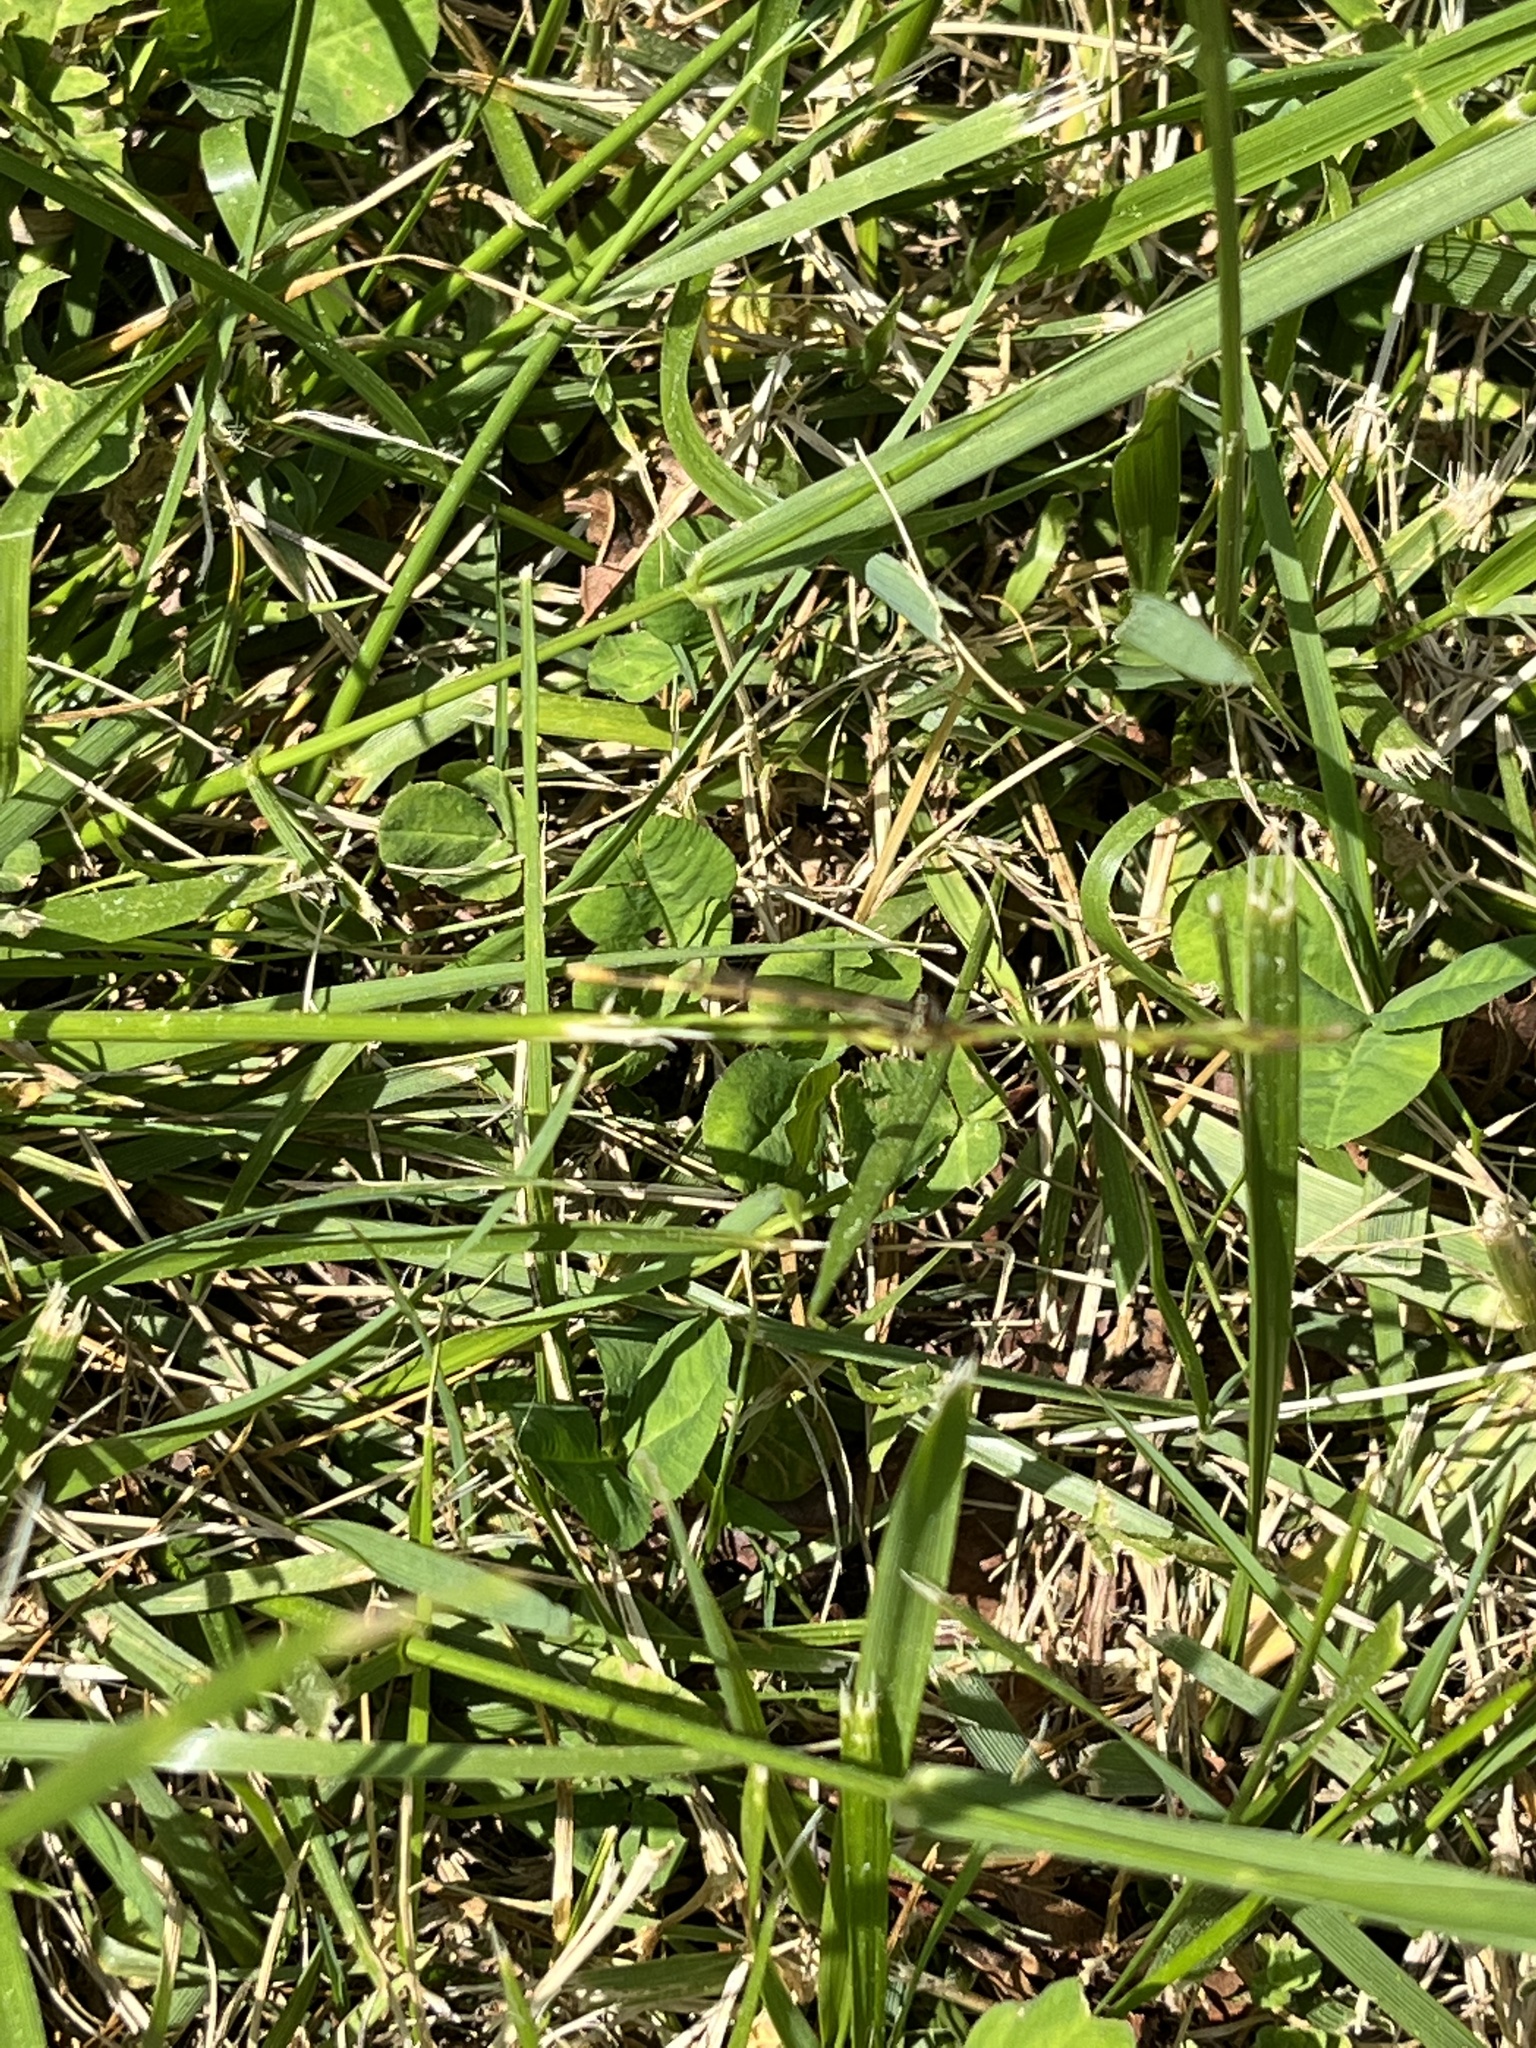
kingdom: Animalia
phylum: Arthropoda
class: Insecta
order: Odonata
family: Coenagrionidae
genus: Ischnura
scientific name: Ischnura hastata
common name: Citrine forktail
